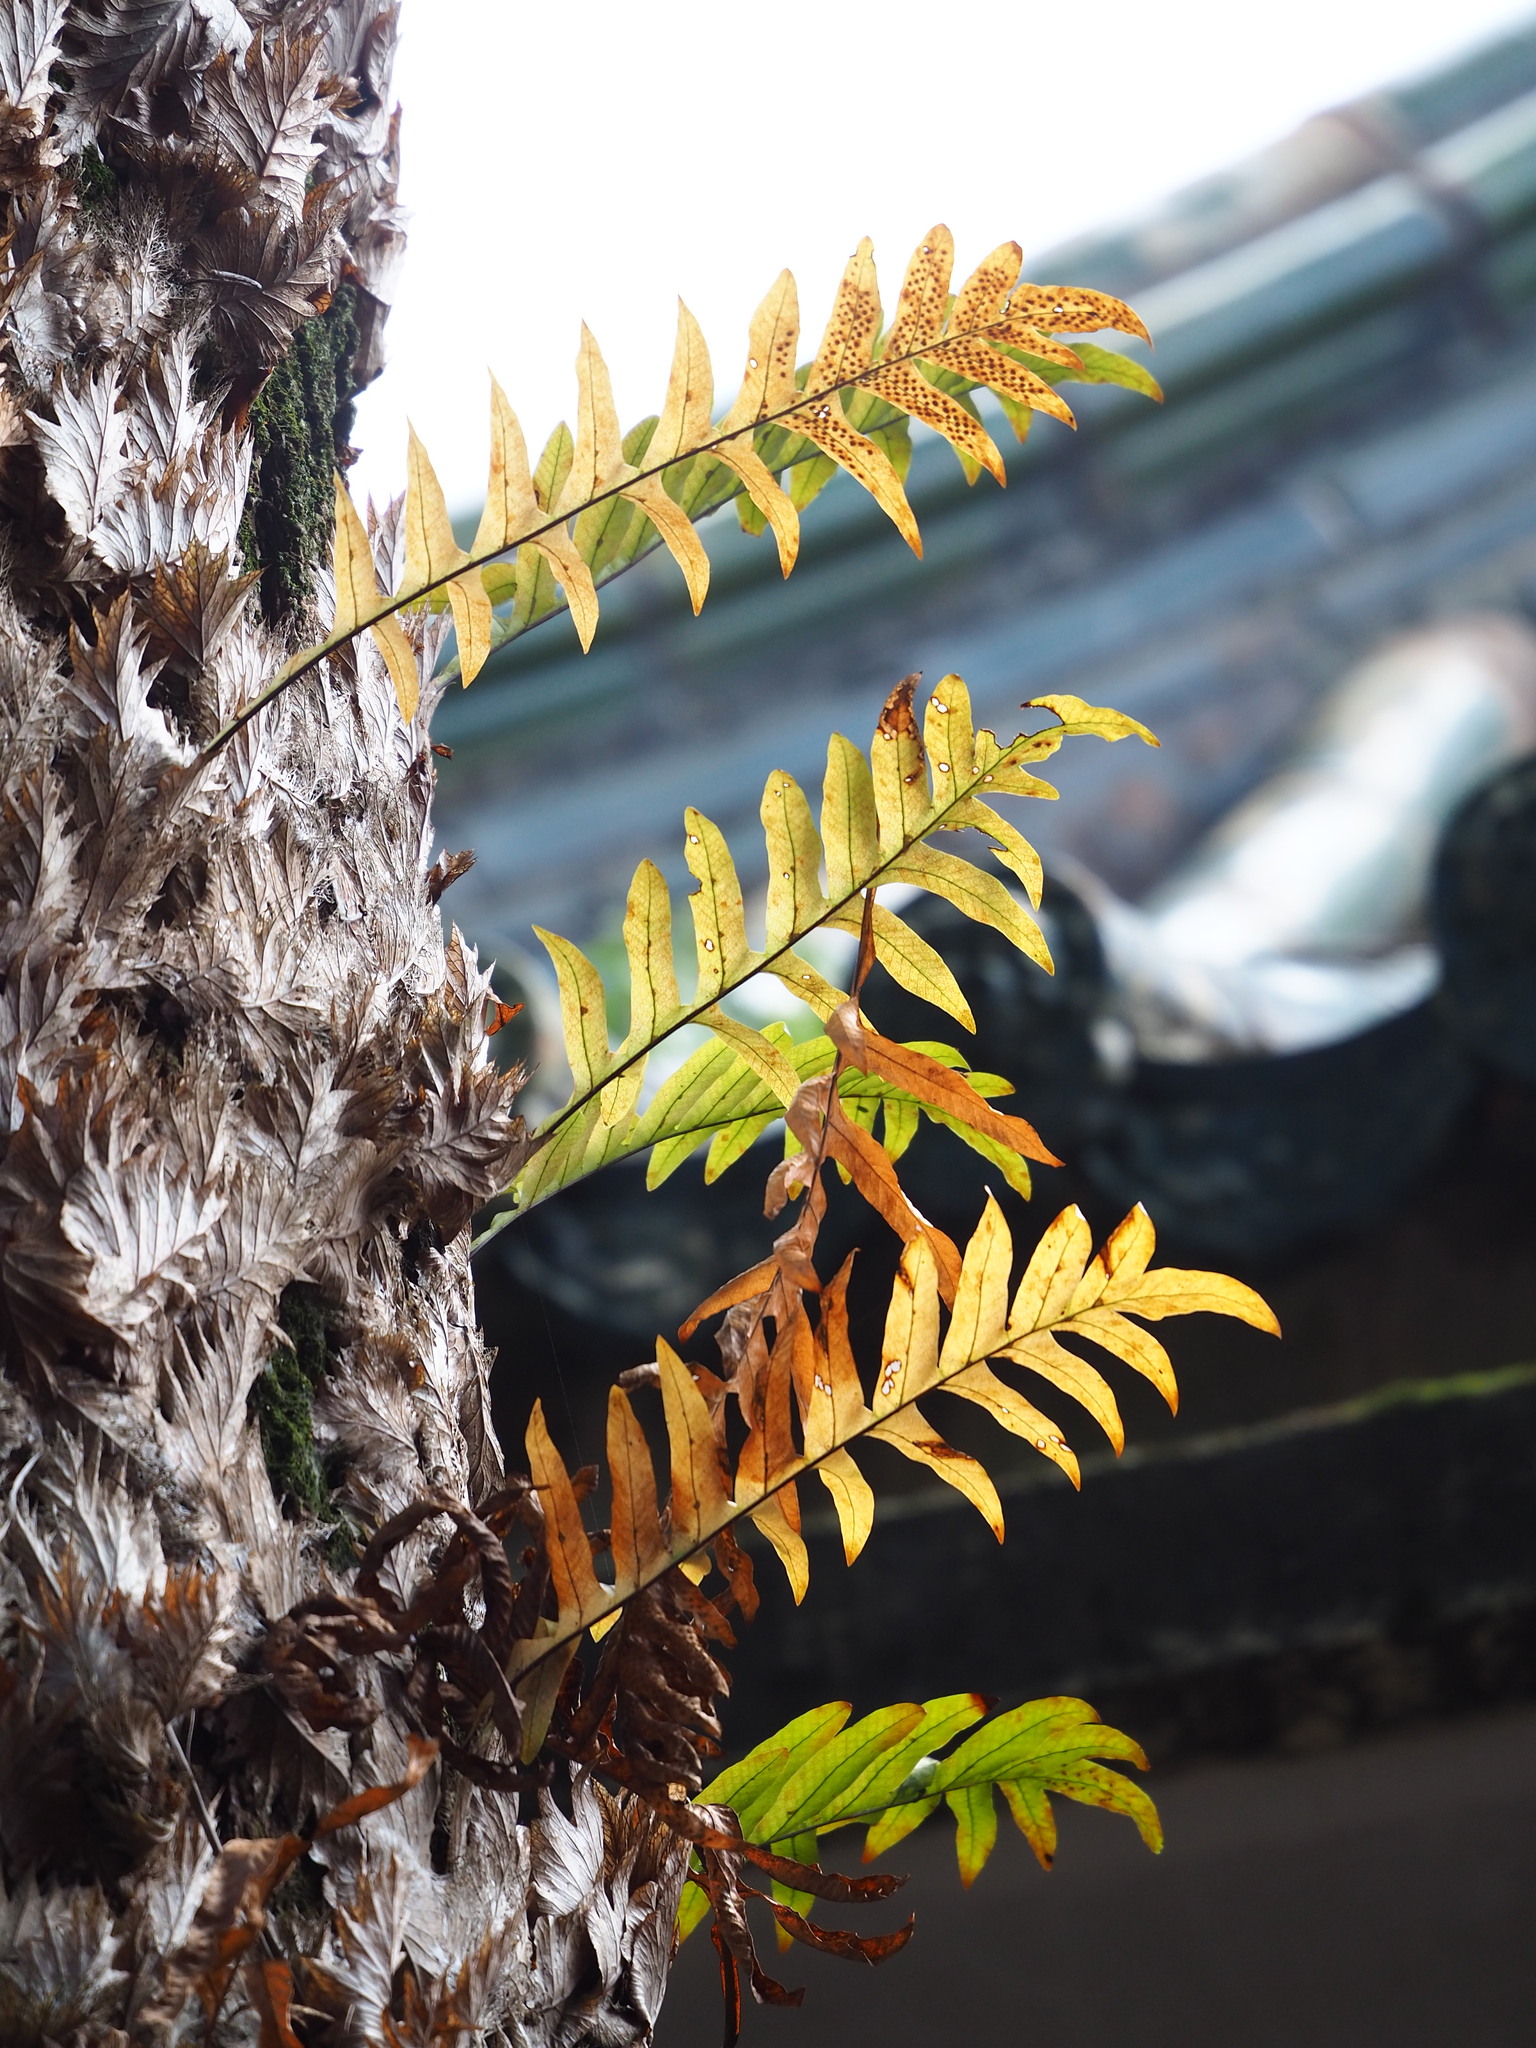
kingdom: Plantae
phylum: Tracheophyta
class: Polypodiopsida
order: Polypodiales
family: Polypodiaceae
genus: Drynaria
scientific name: Drynaria roosii
